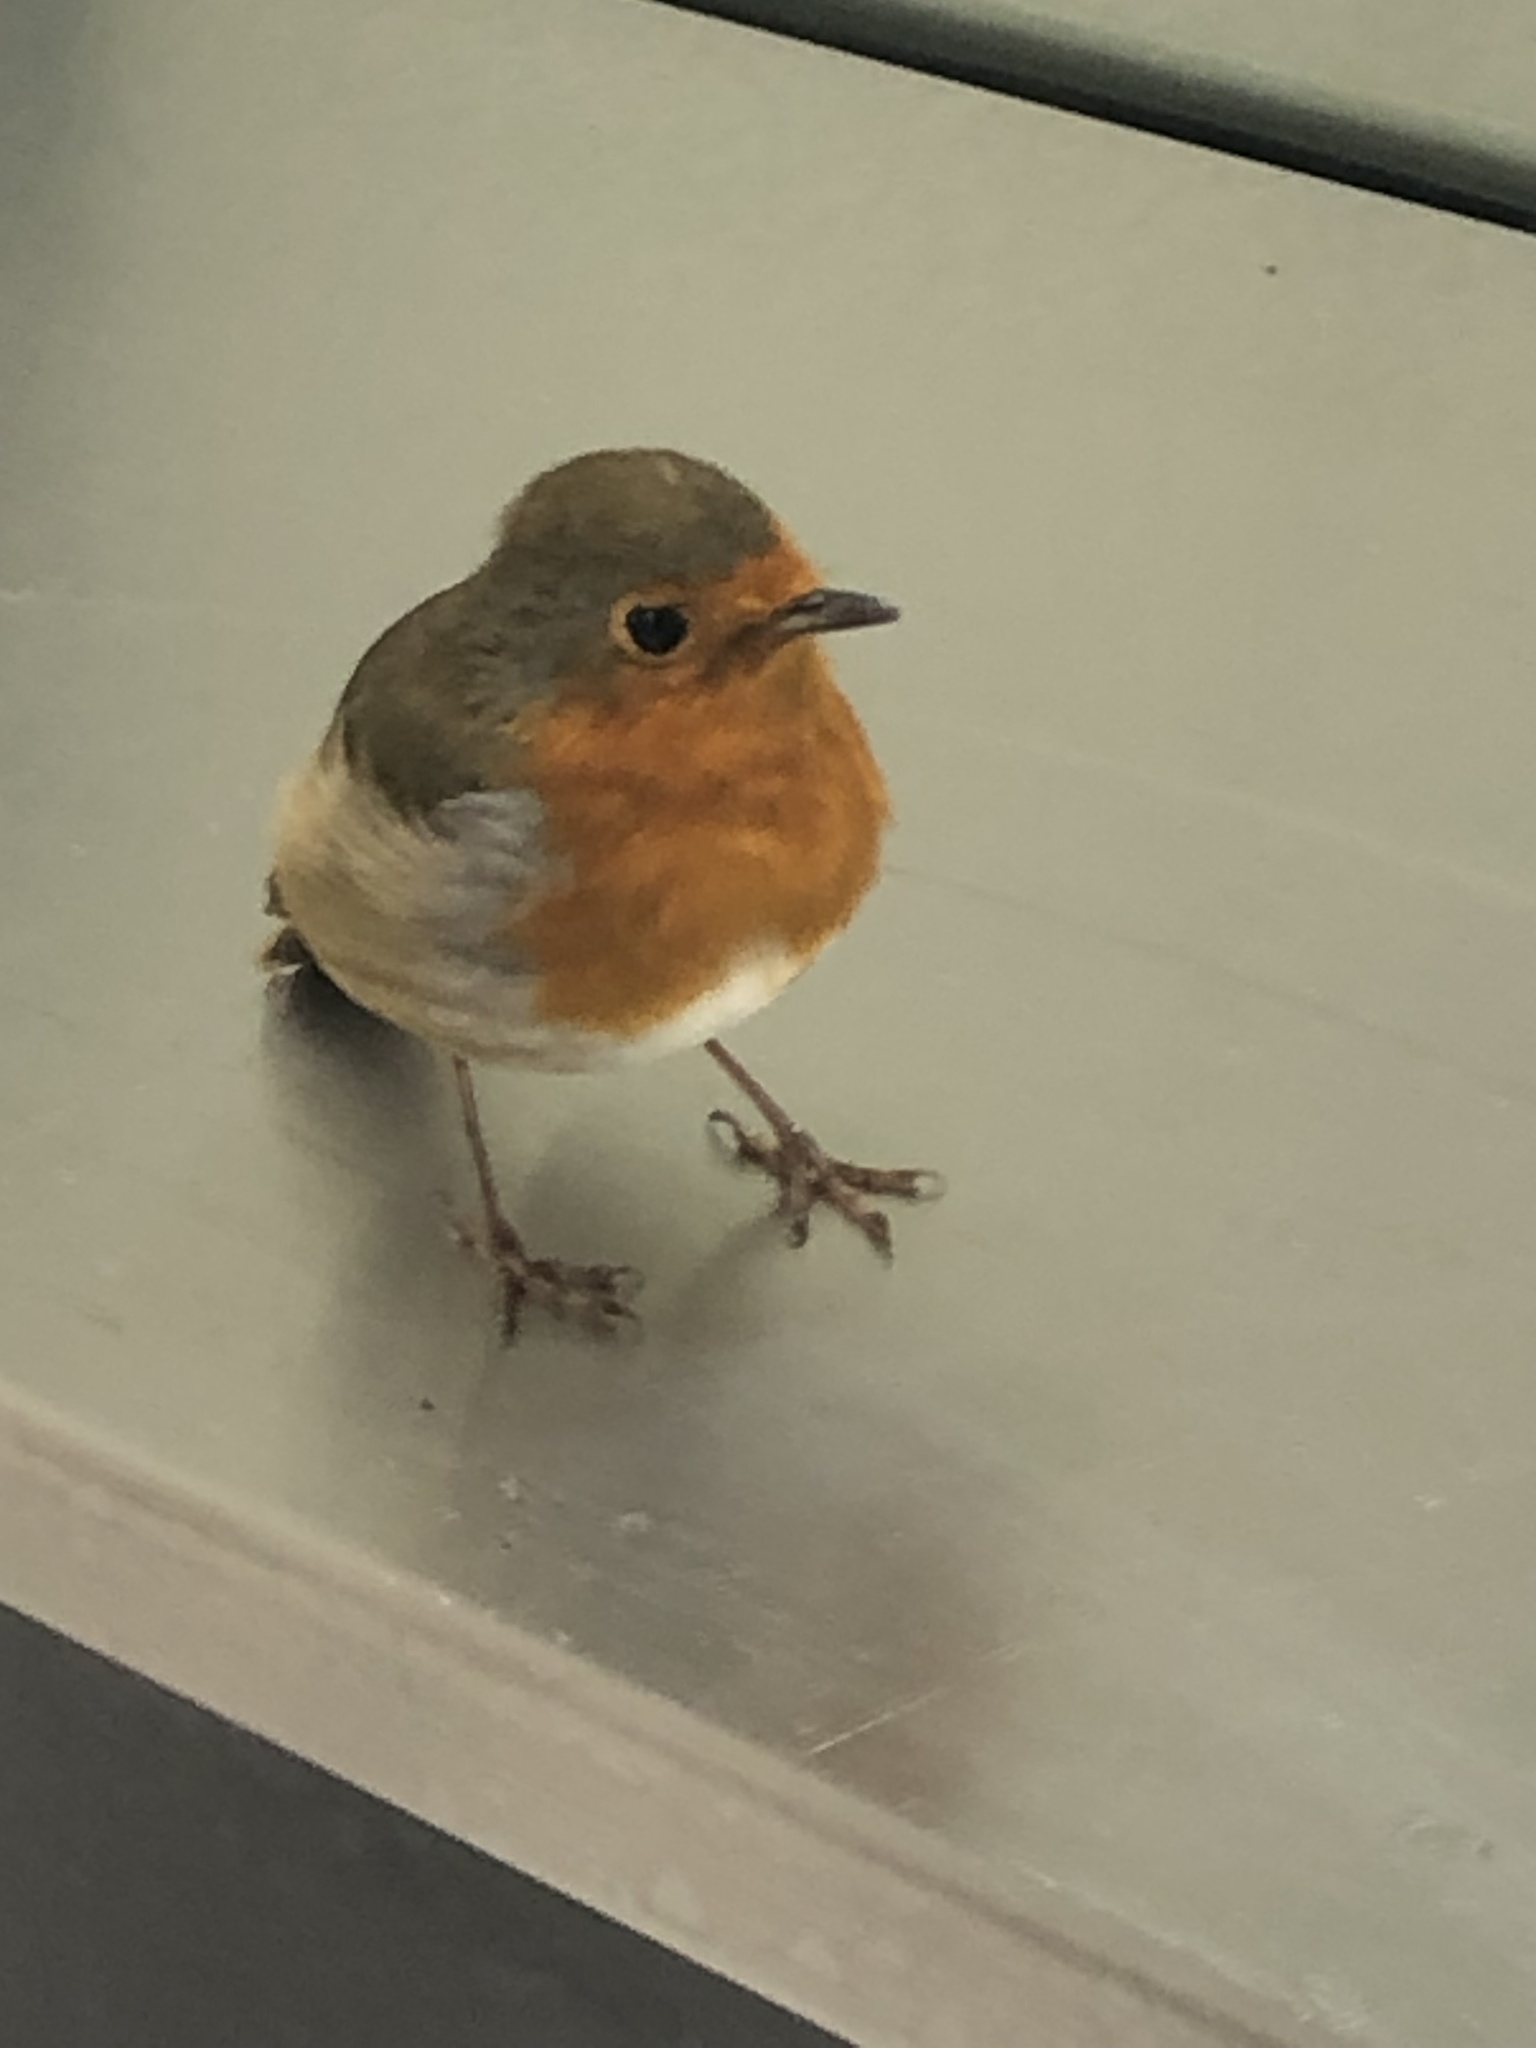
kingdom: Animalia
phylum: Chordata
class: Aves
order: Passeriformes
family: Muscicapidae
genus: Erithacus
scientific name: Erithacus rubecula
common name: European robin
